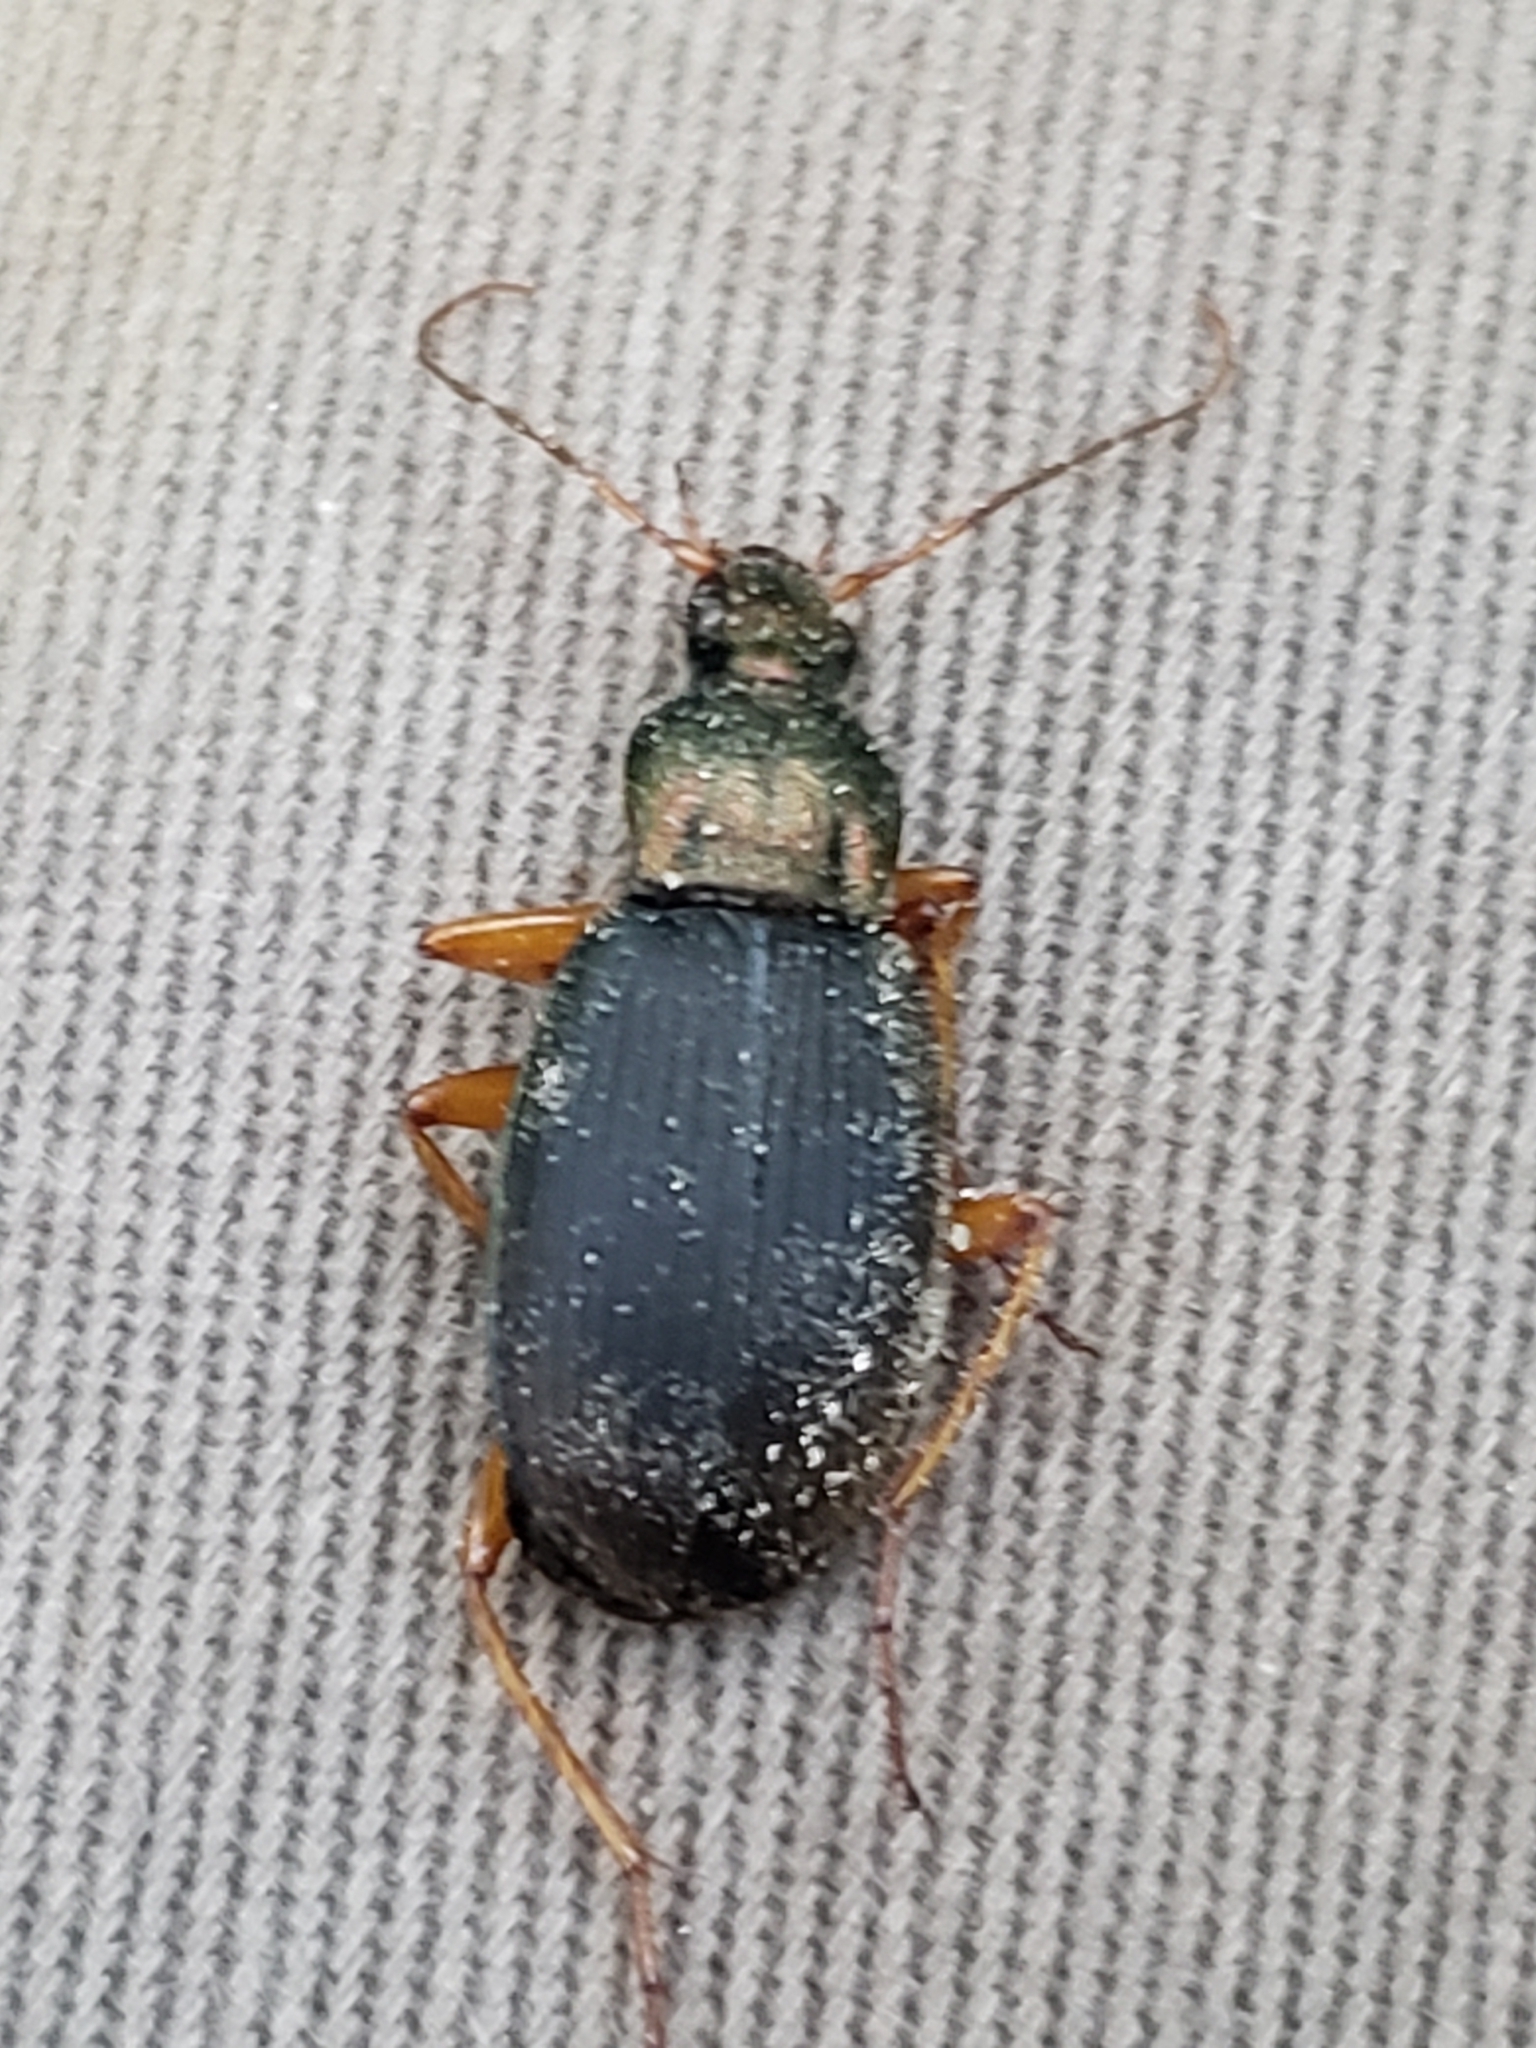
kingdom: Animalia
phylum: Arthropoda
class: Insecta
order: Coleoptera
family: Carabidae
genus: Chlaenius
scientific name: Chlaenius aestivus
